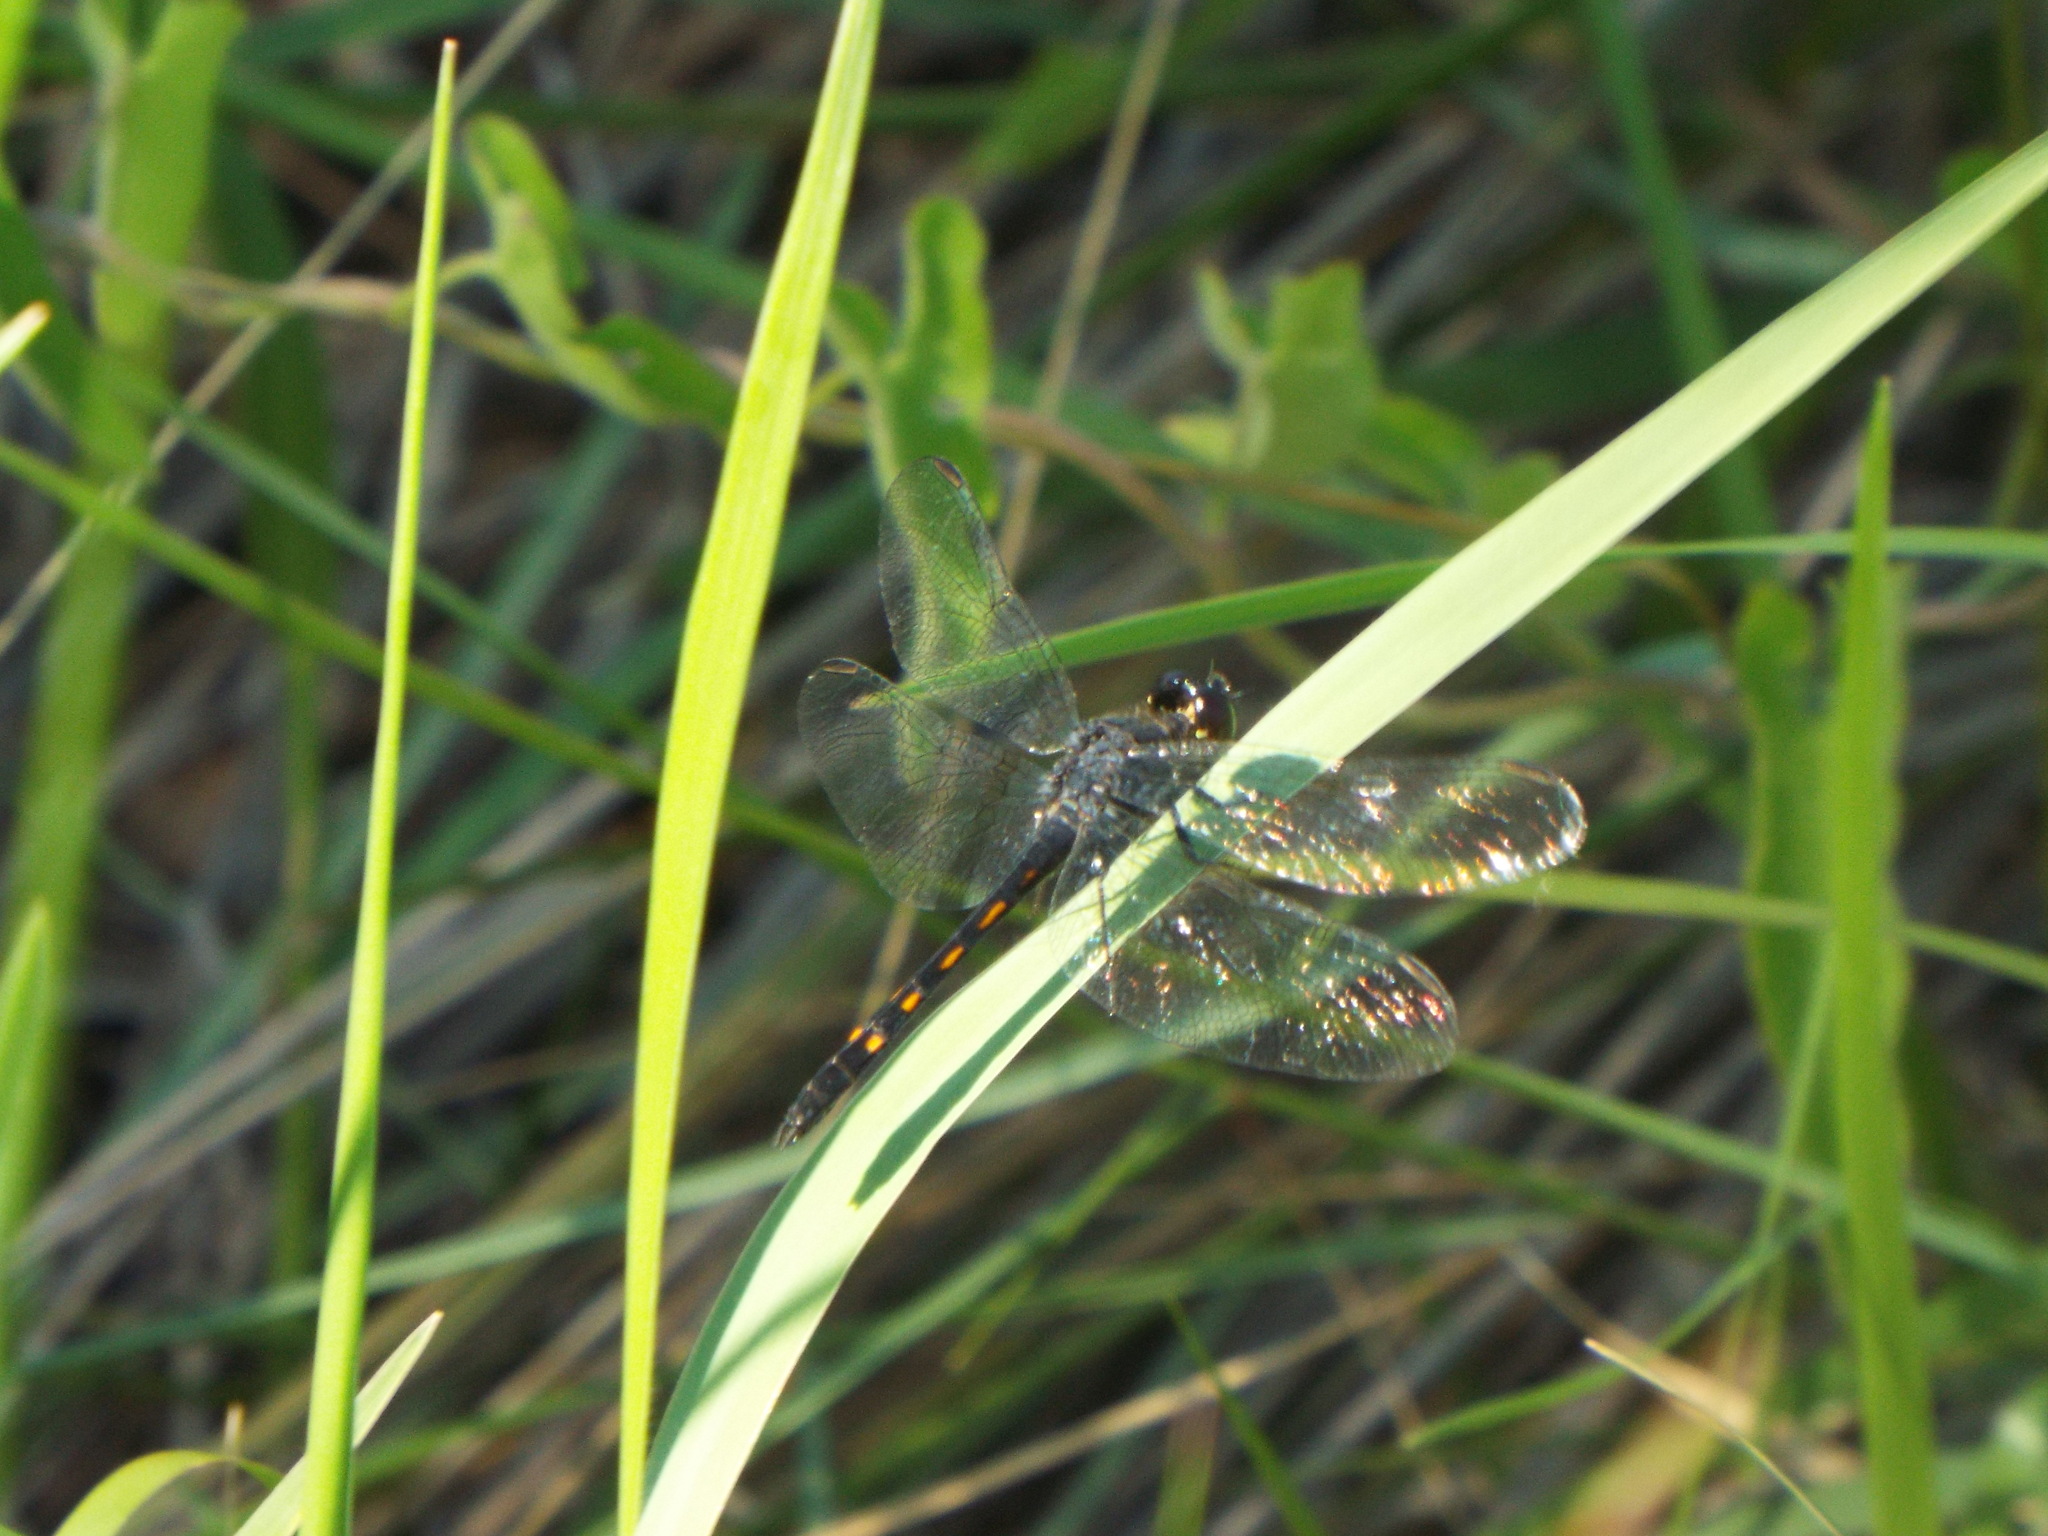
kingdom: Animalia
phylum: Arthropoda
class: Insecta
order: Odonata
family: Libellulidae
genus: Erythrodiplax
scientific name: Erythrodiplax berenice
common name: Seaside dragonlet
